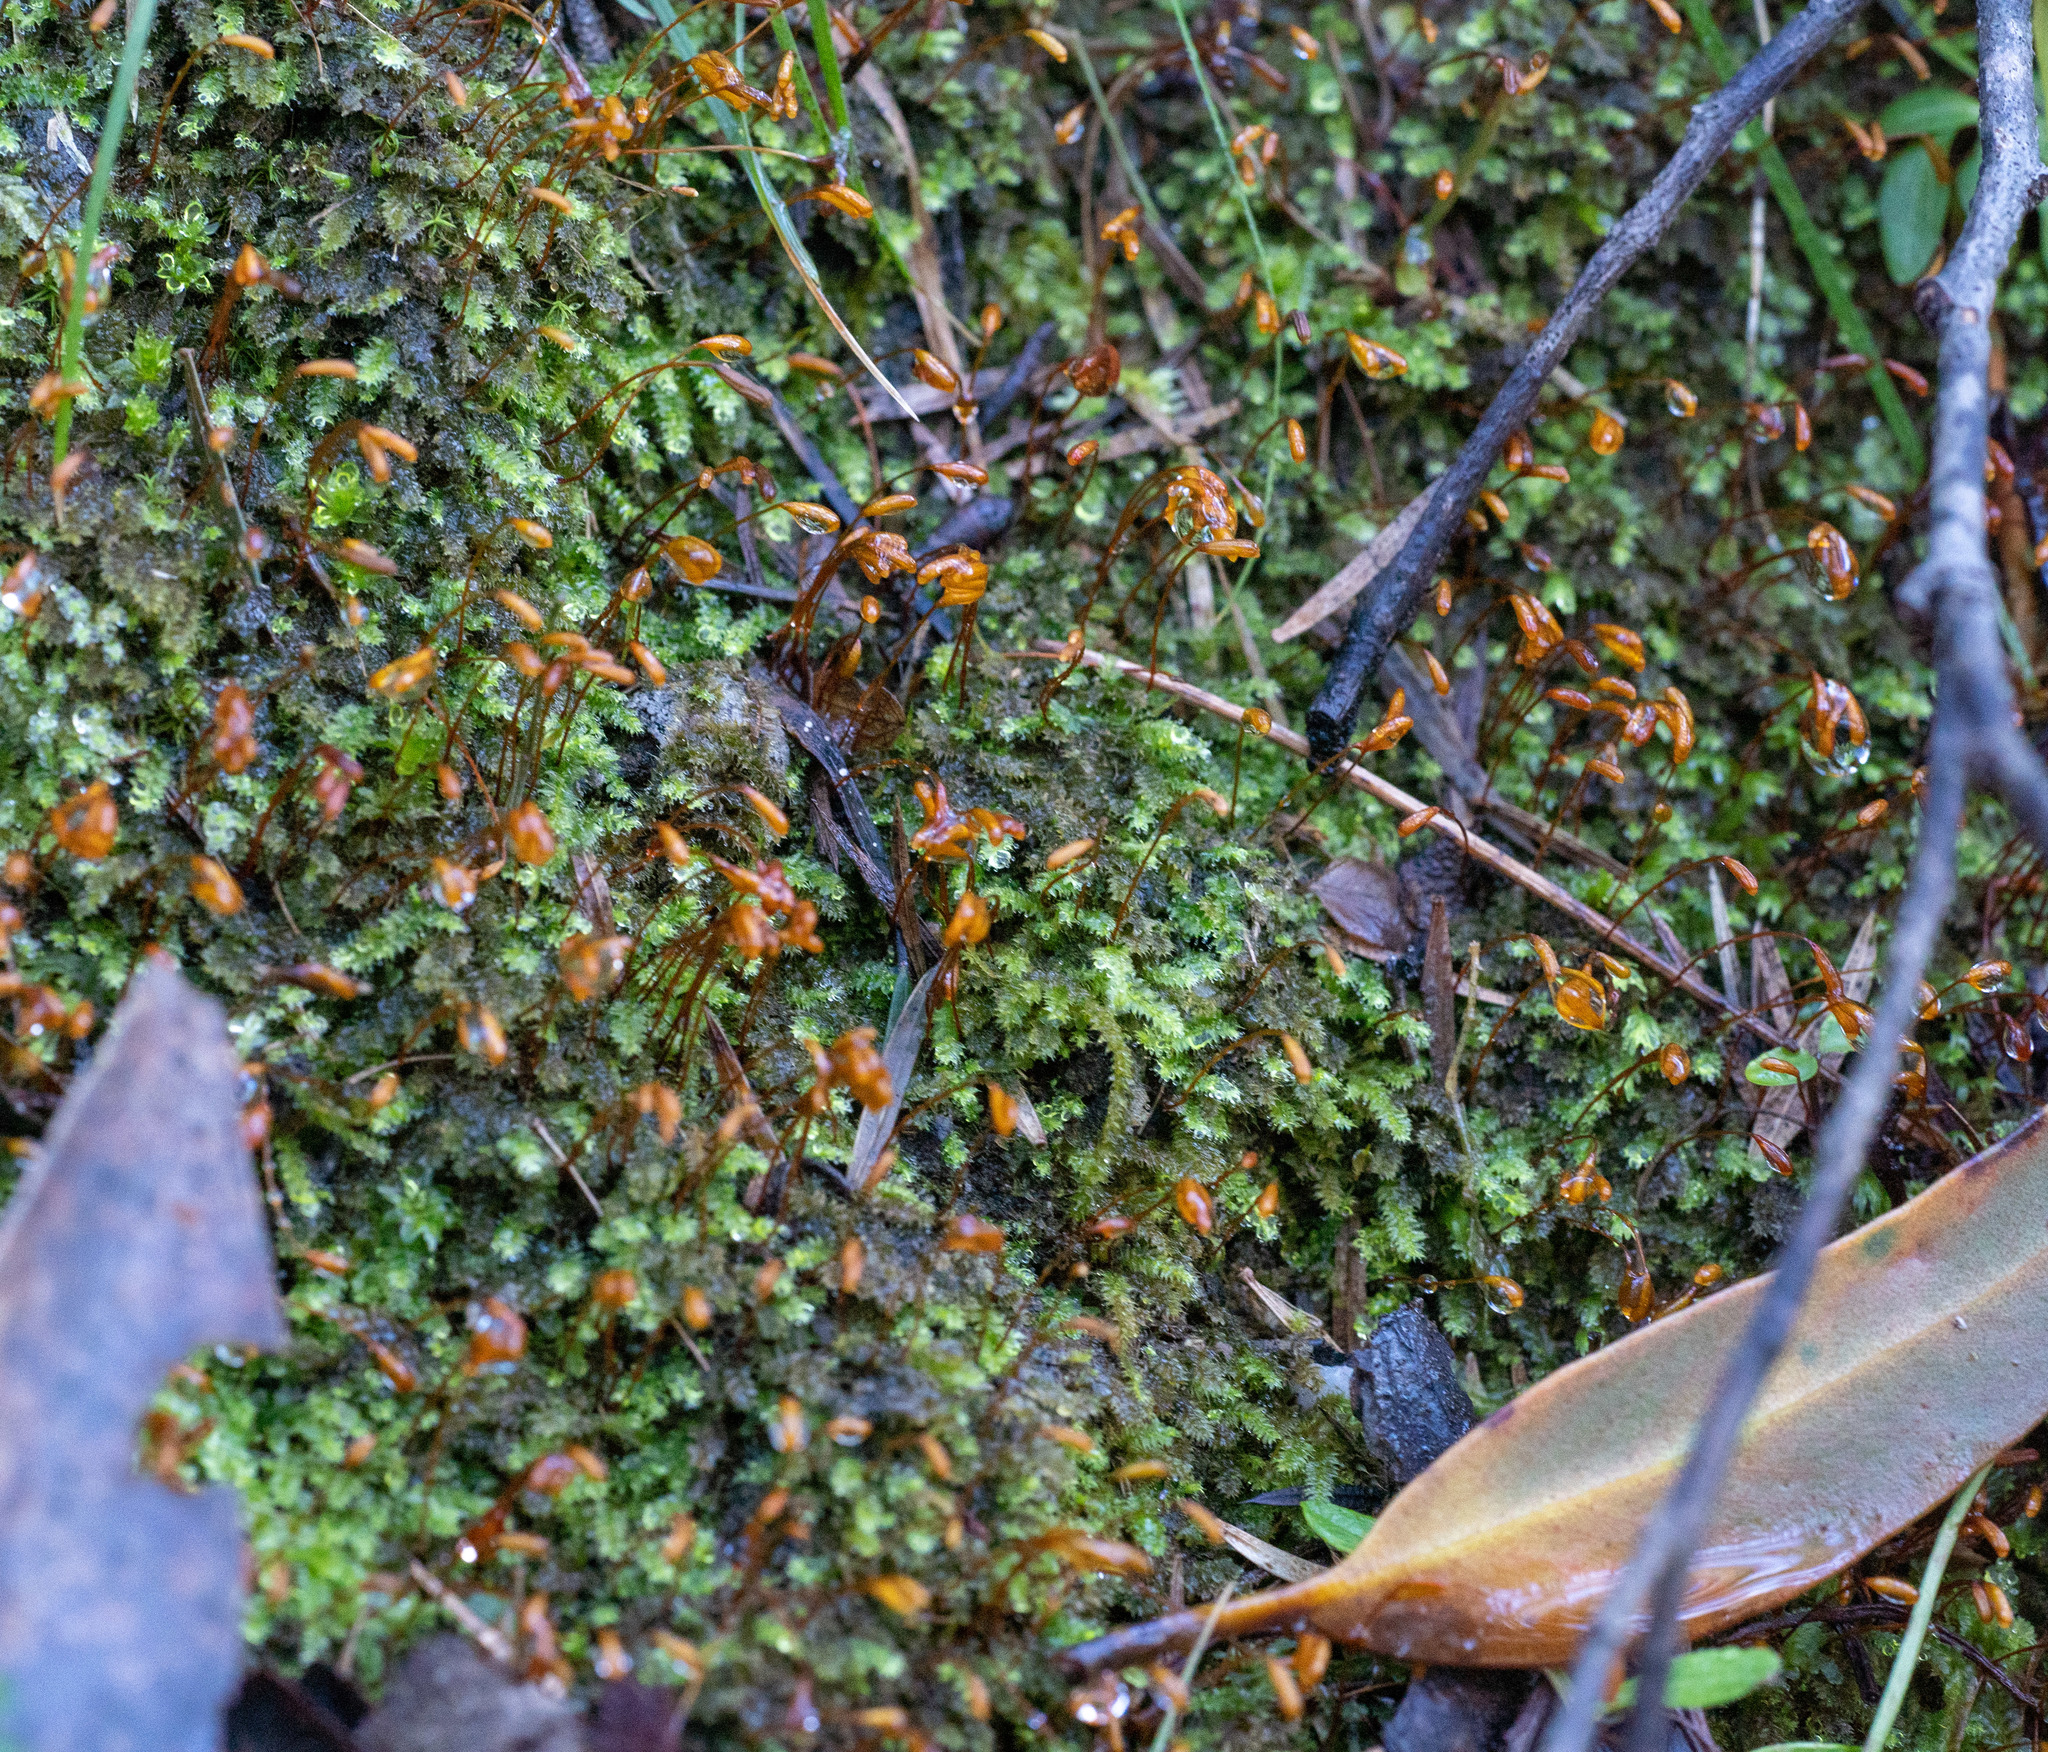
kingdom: Plantae
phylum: Bryophyta
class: Bryopsida
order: Hypnodendrales
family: Racopilaceae
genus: Racopilum
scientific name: Racopilum cuspidigerum
